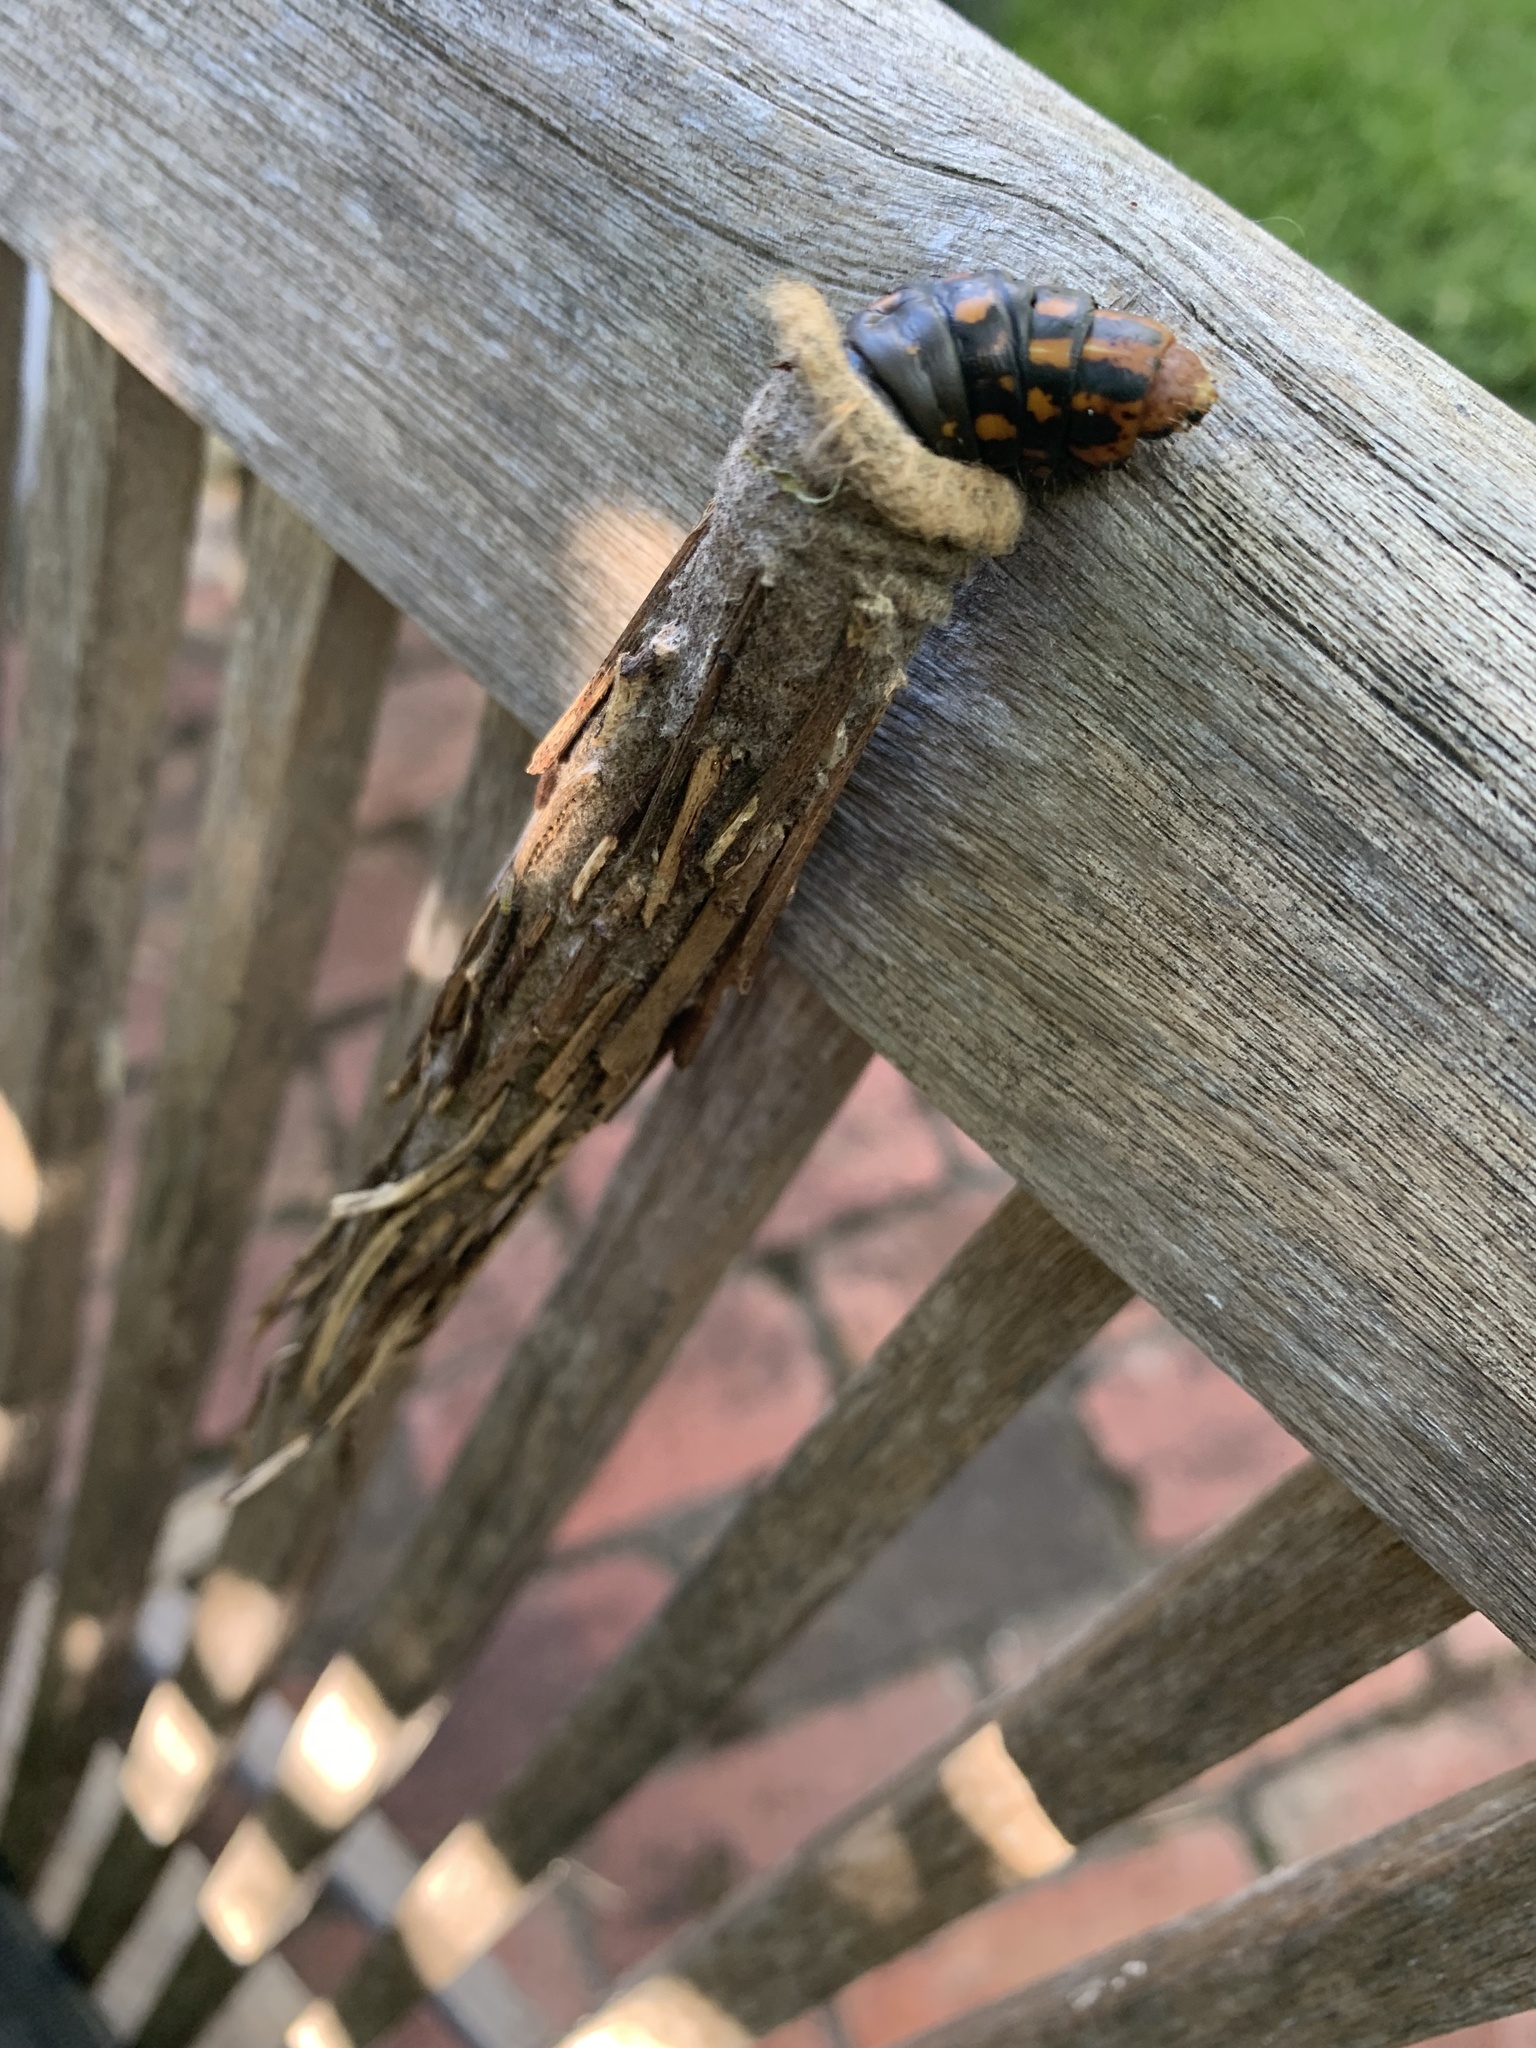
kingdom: Animalia
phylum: Arthropoda
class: Insecta
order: Lepidoptera
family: Psychidae
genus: Metura
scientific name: Metura elongatus
